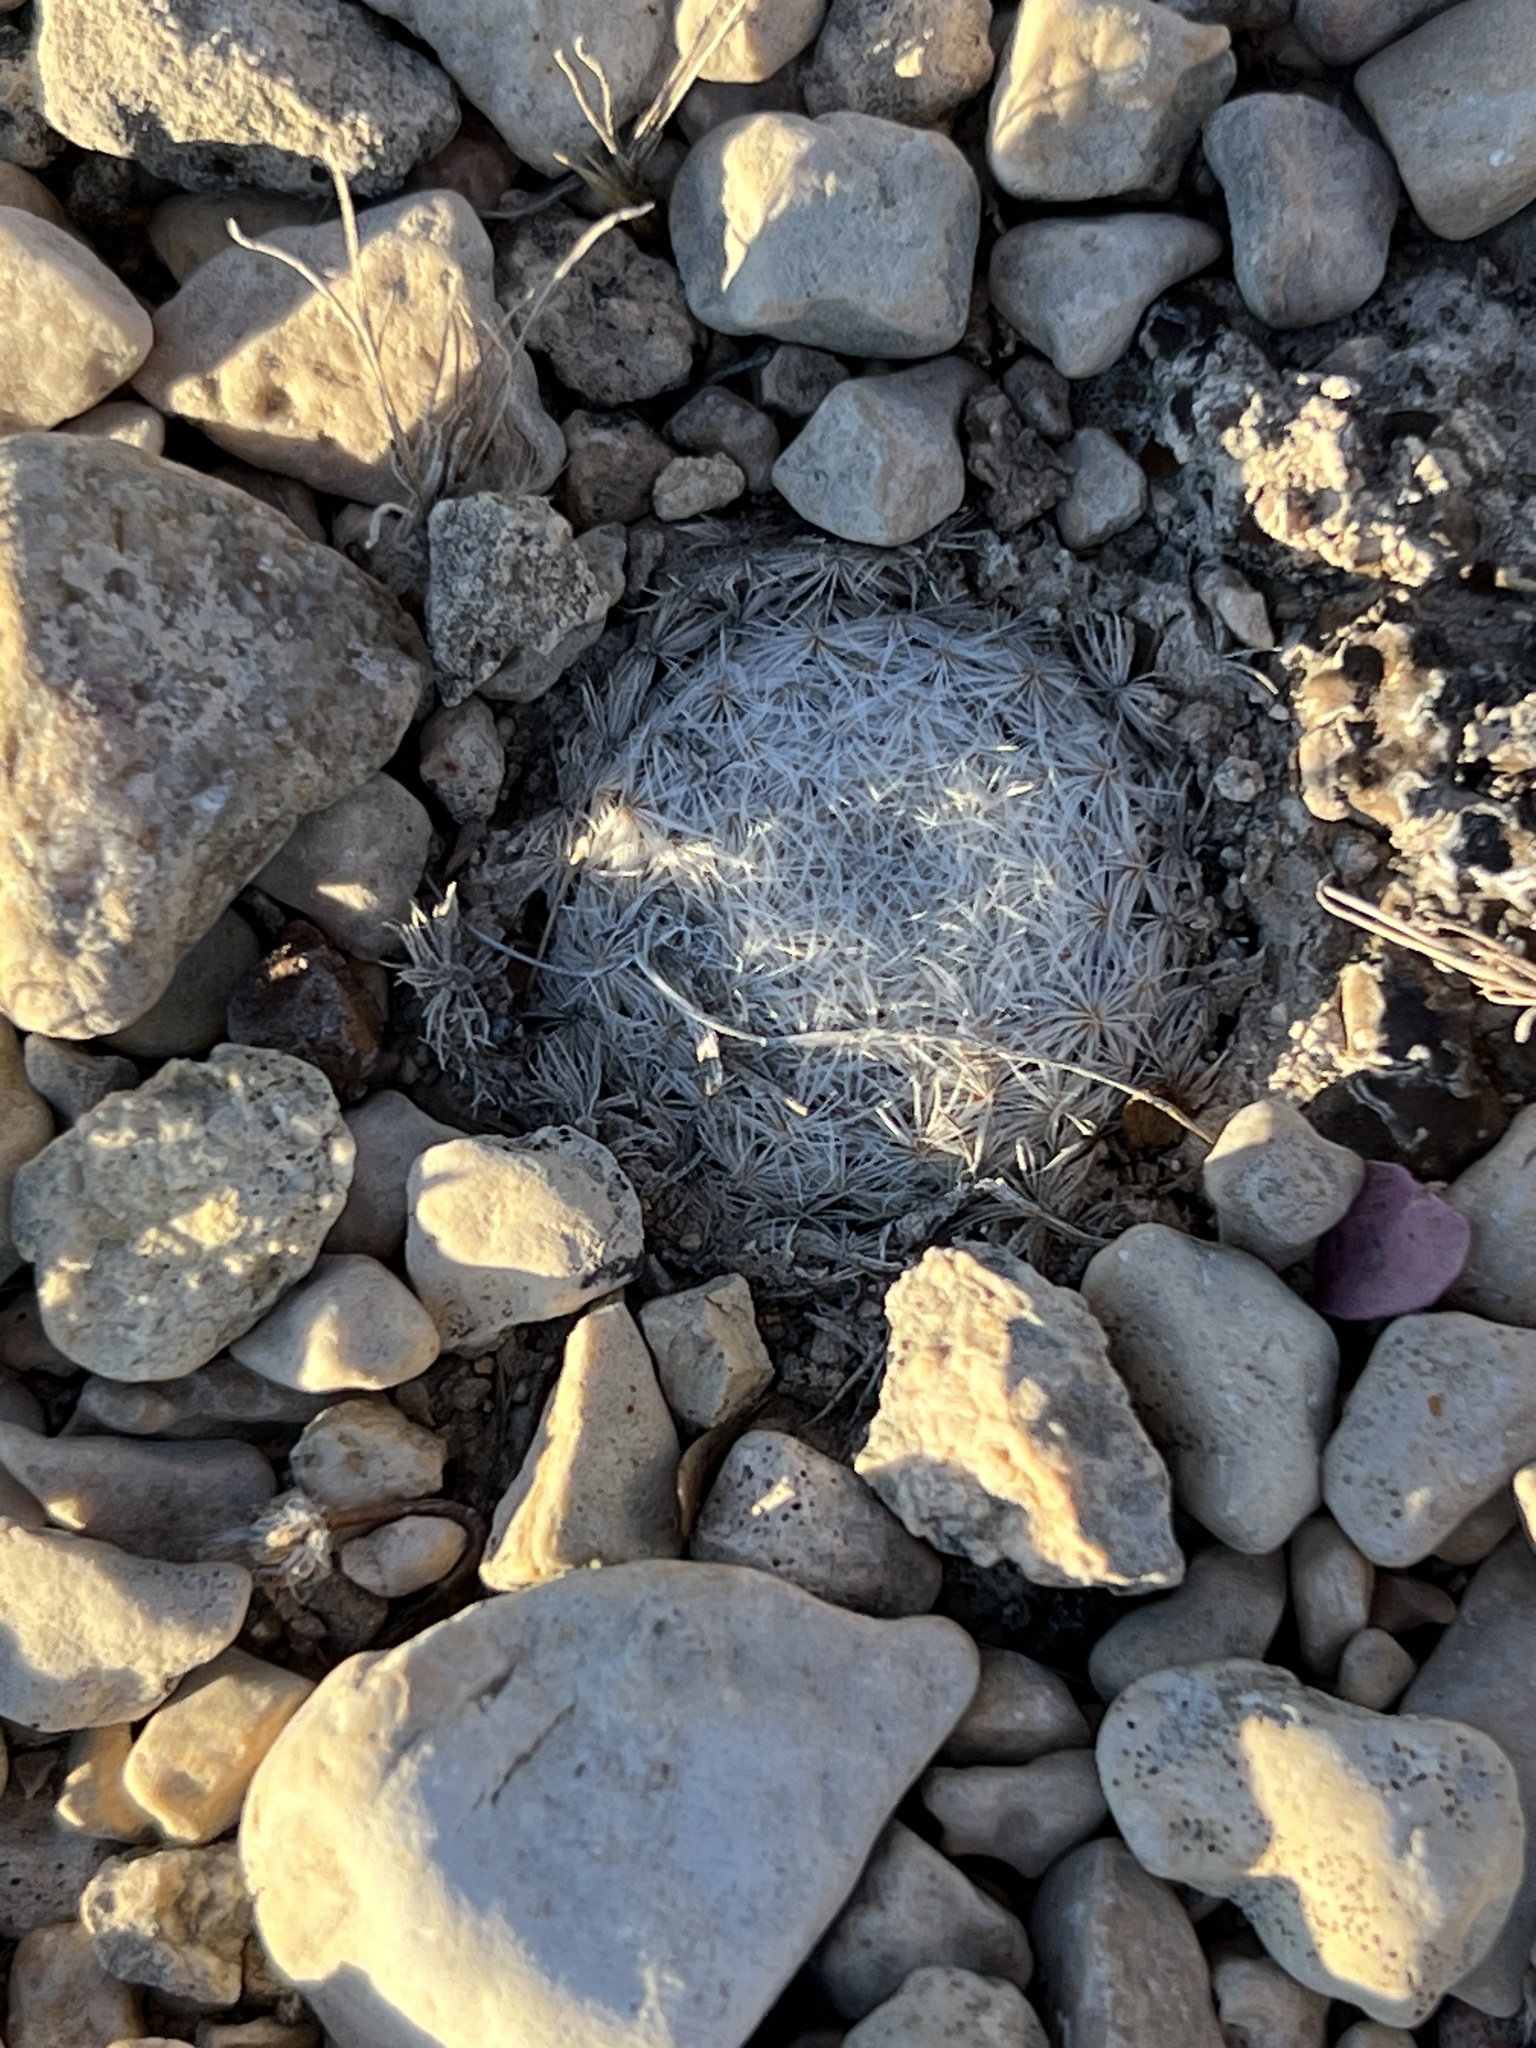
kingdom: Plantae
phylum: Tracheophyta
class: Magnoliopsida
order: Caryophyllales
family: Cactaceae
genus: Mammillaria
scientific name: Mammillaria lasiacantha
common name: Lace-spine nipple cactus
